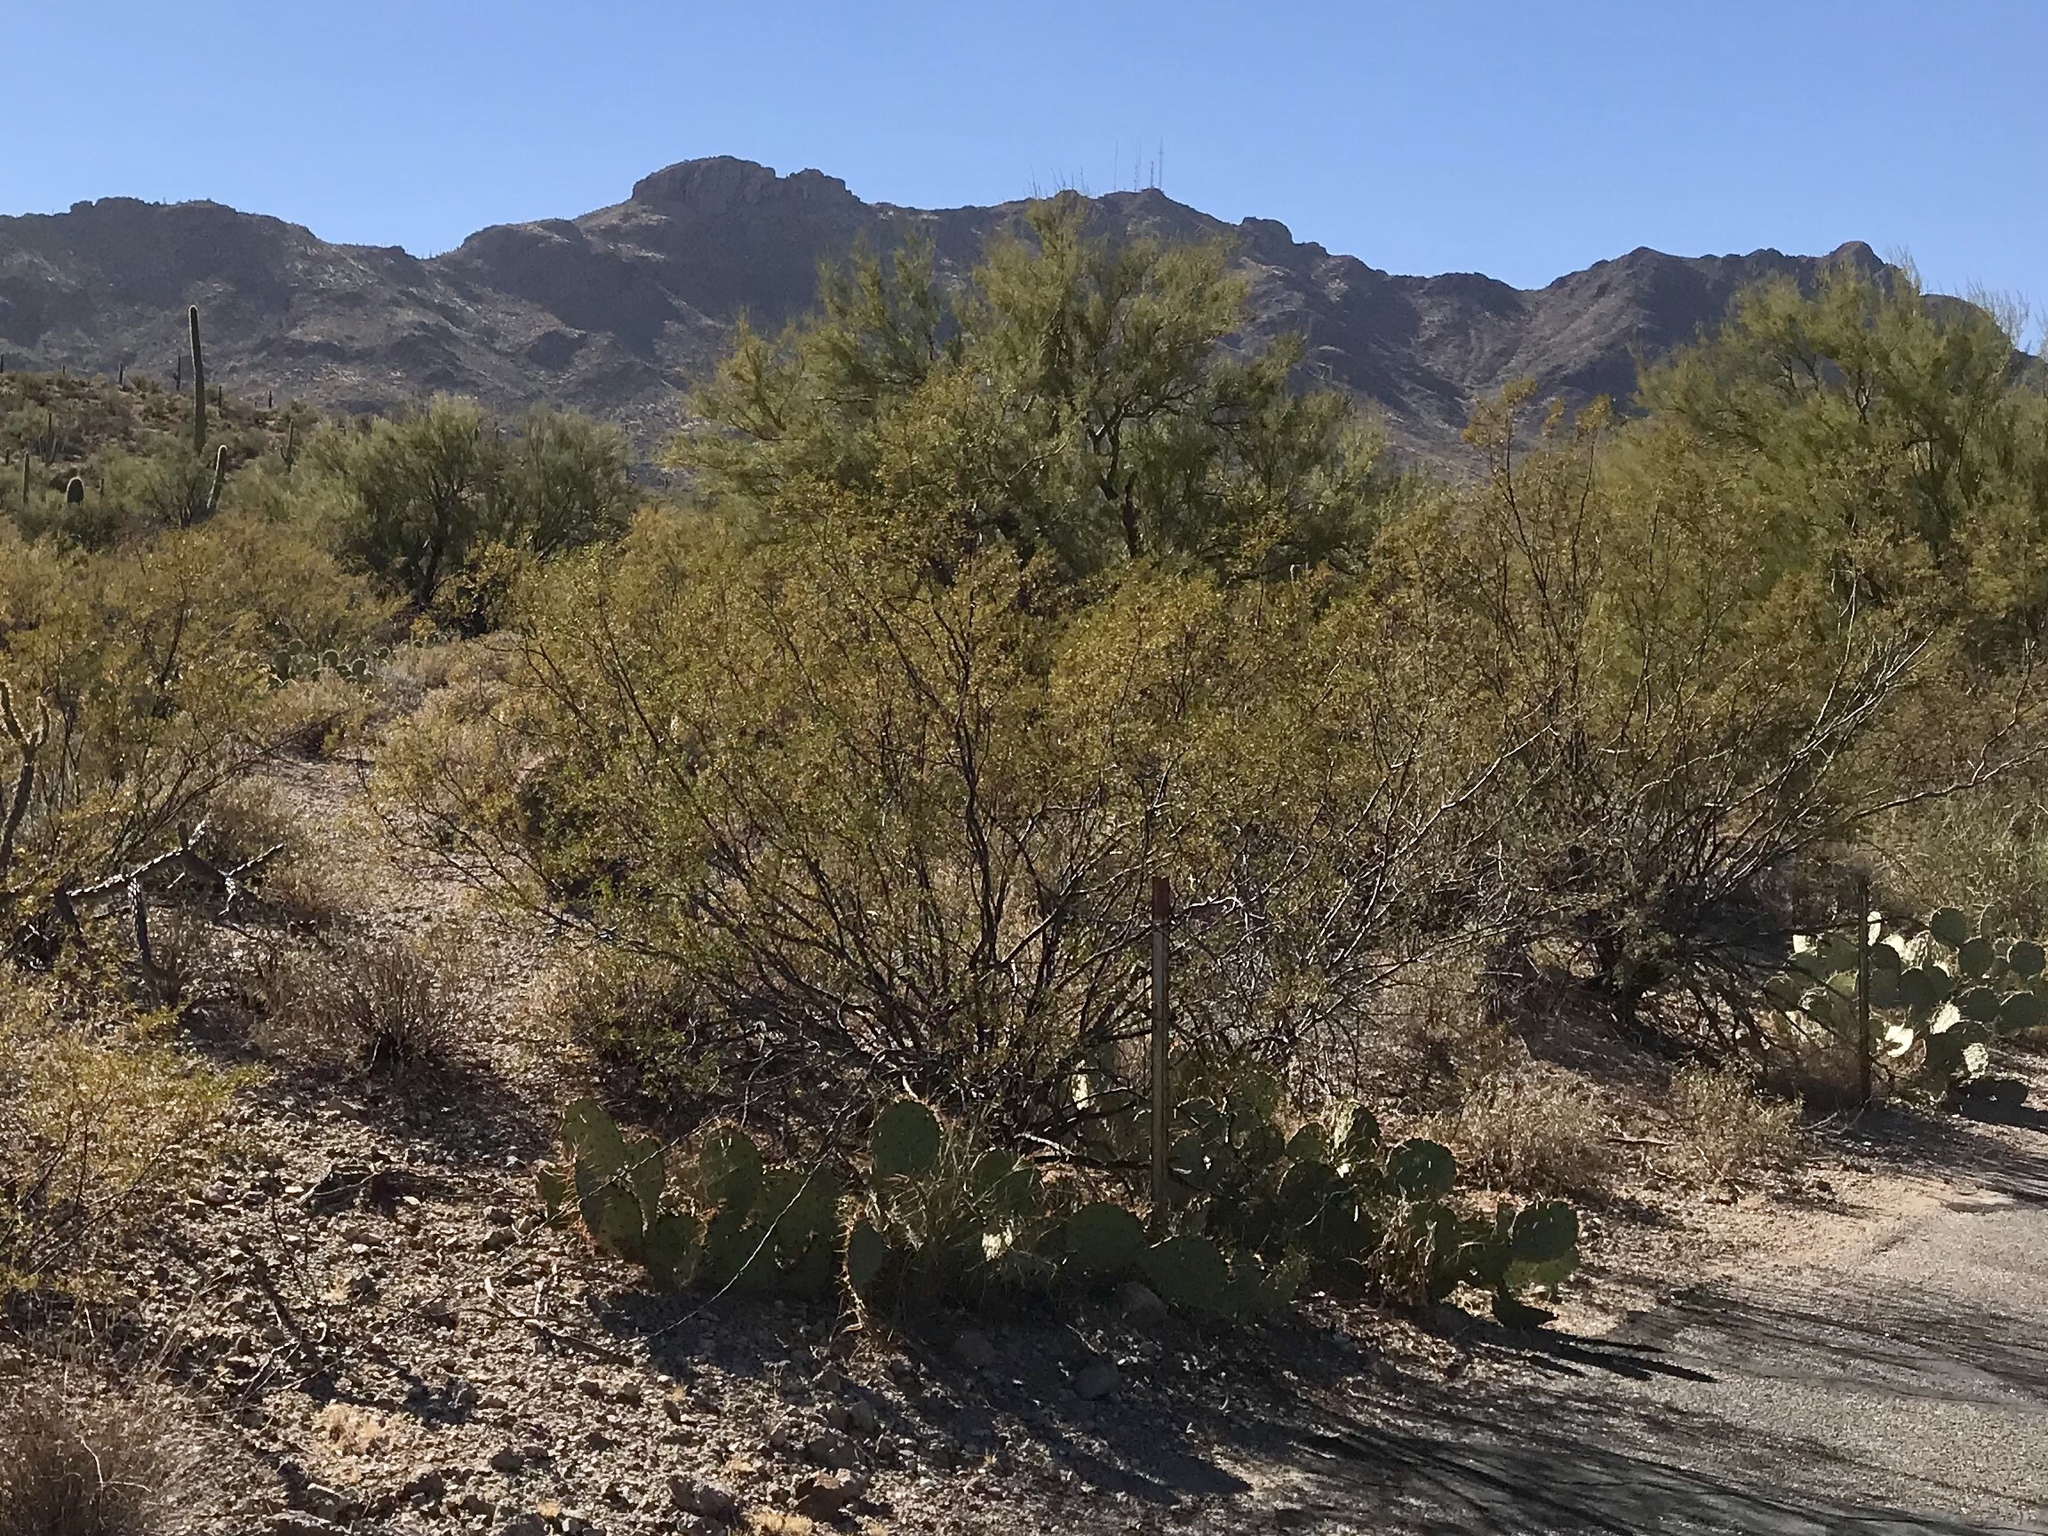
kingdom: Plantae
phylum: Tracheophyta
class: Magnoliopsida
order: Zygophyllales
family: Zygophyllaceae
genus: Larrea
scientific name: Larrea tridentata
